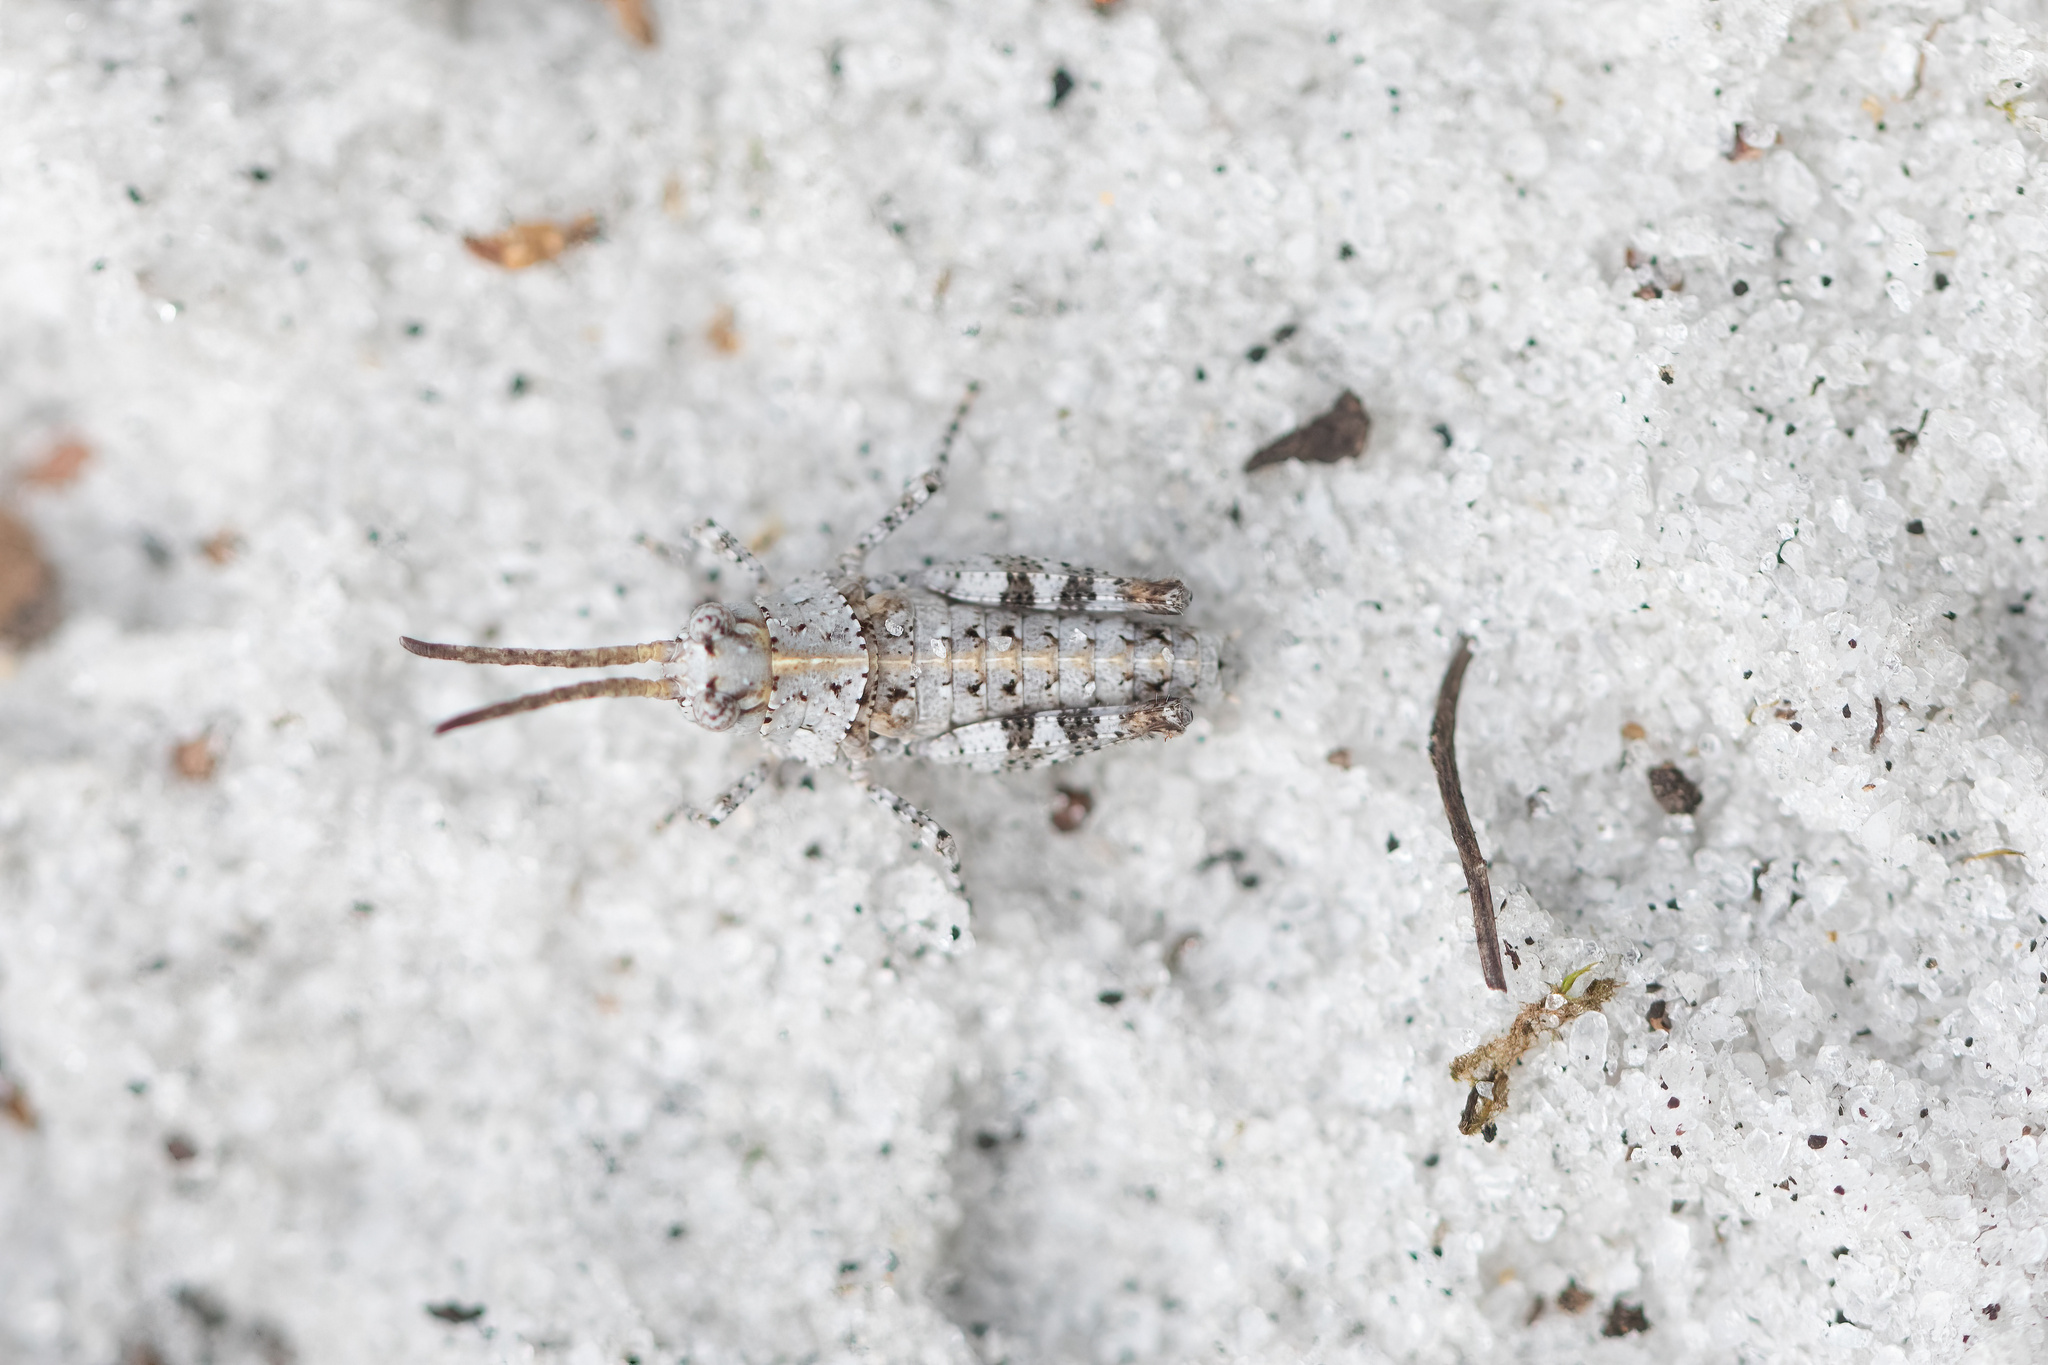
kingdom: Animalia
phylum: Arthropoda
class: Insecta
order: Orthoptera
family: Acrididae
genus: Psinidia
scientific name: Psinidia fenestralis
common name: Long-horned locust
